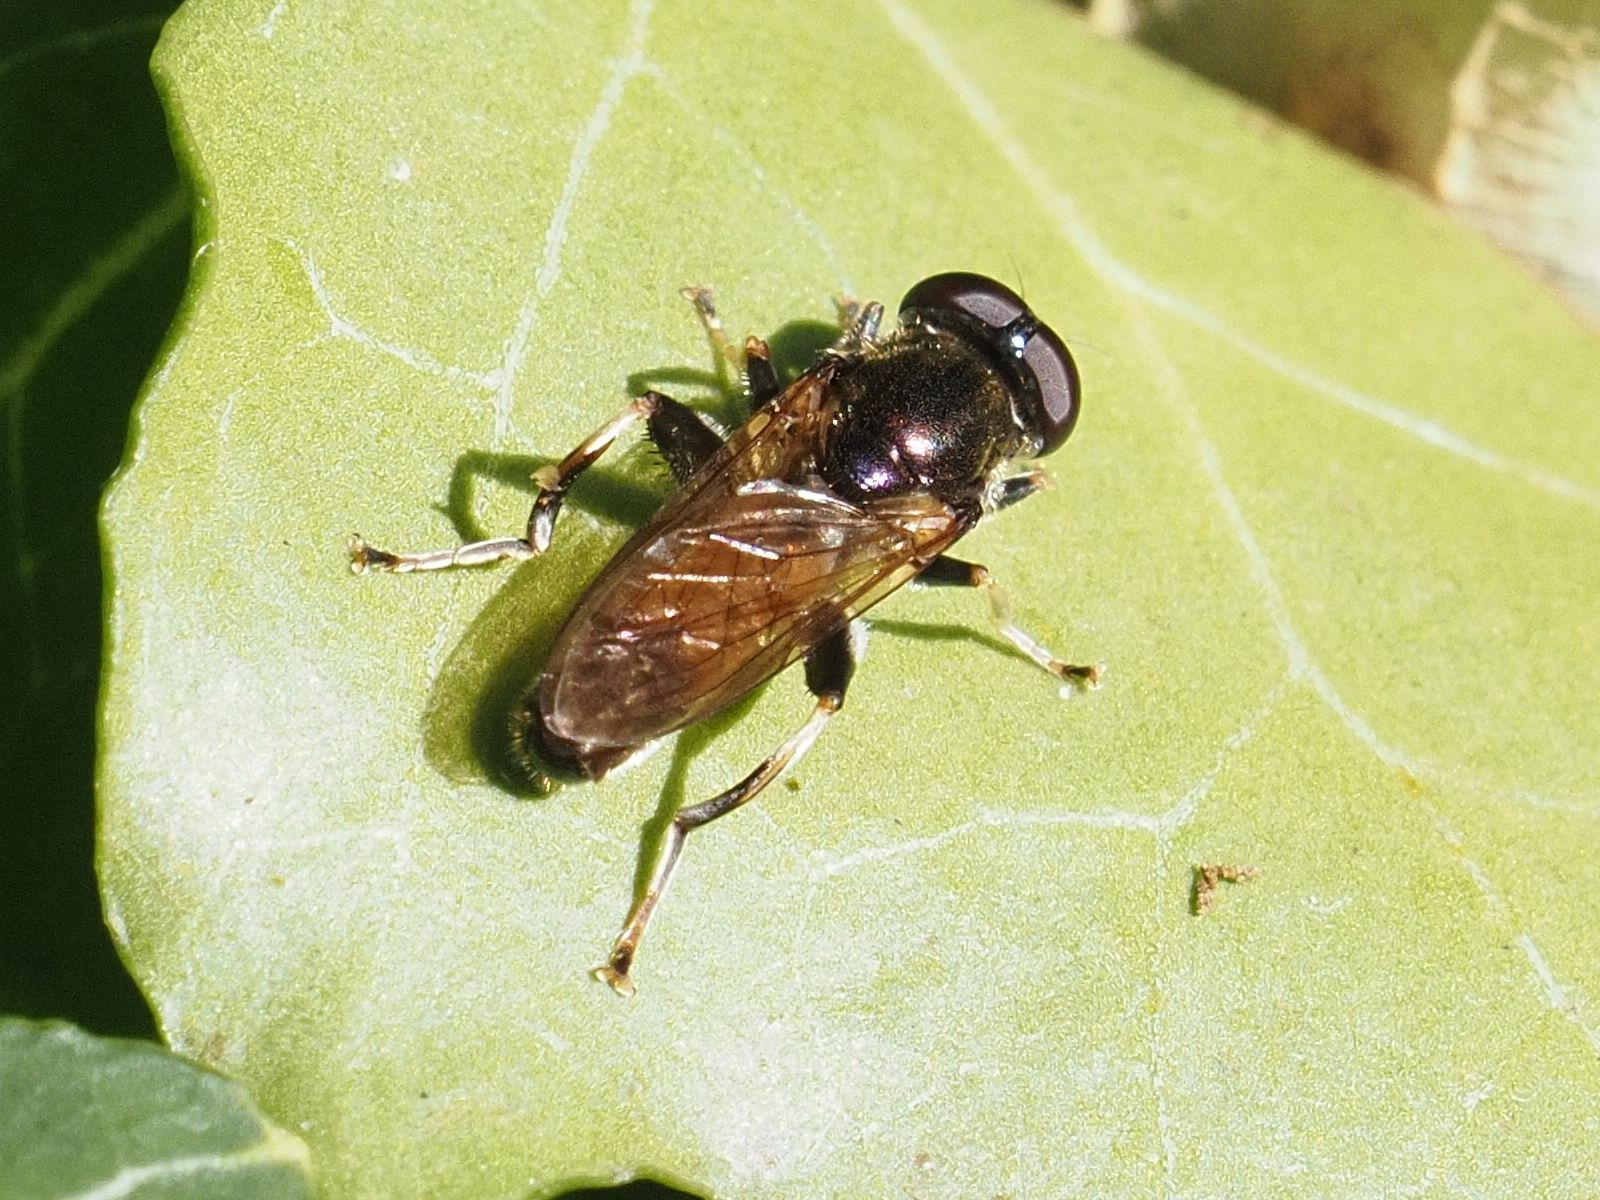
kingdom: Animalia
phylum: Arthropoda
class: Insecta
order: Diptera
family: Syrphidae
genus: Xylota
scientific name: Xylota segnis
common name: Brown-toed forest fly
